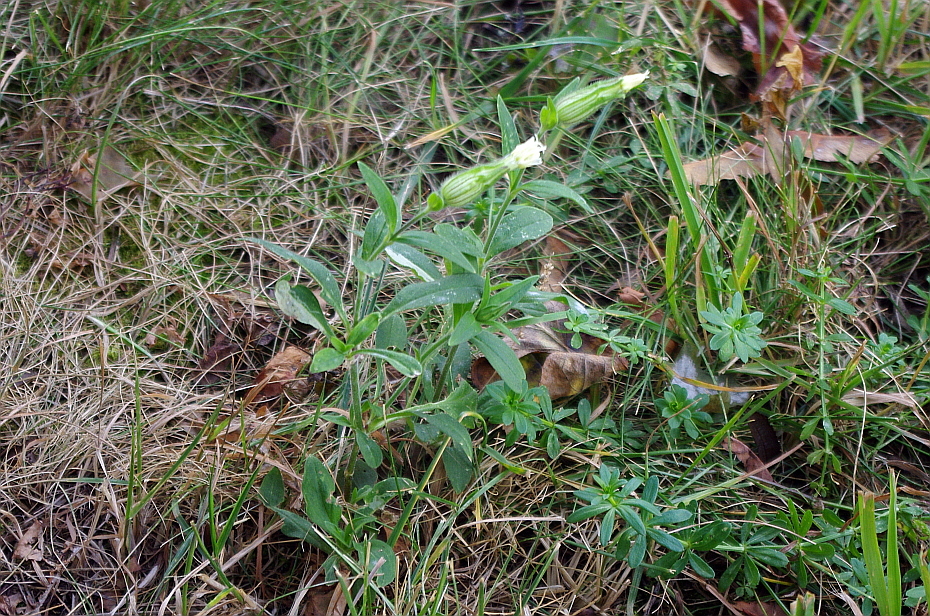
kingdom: Plantae
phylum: Tracheophyta
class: Magnoliopsida
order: Caryophyllales
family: Caryophyllaceae
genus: Silene
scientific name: Silene latifolia
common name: White campion
